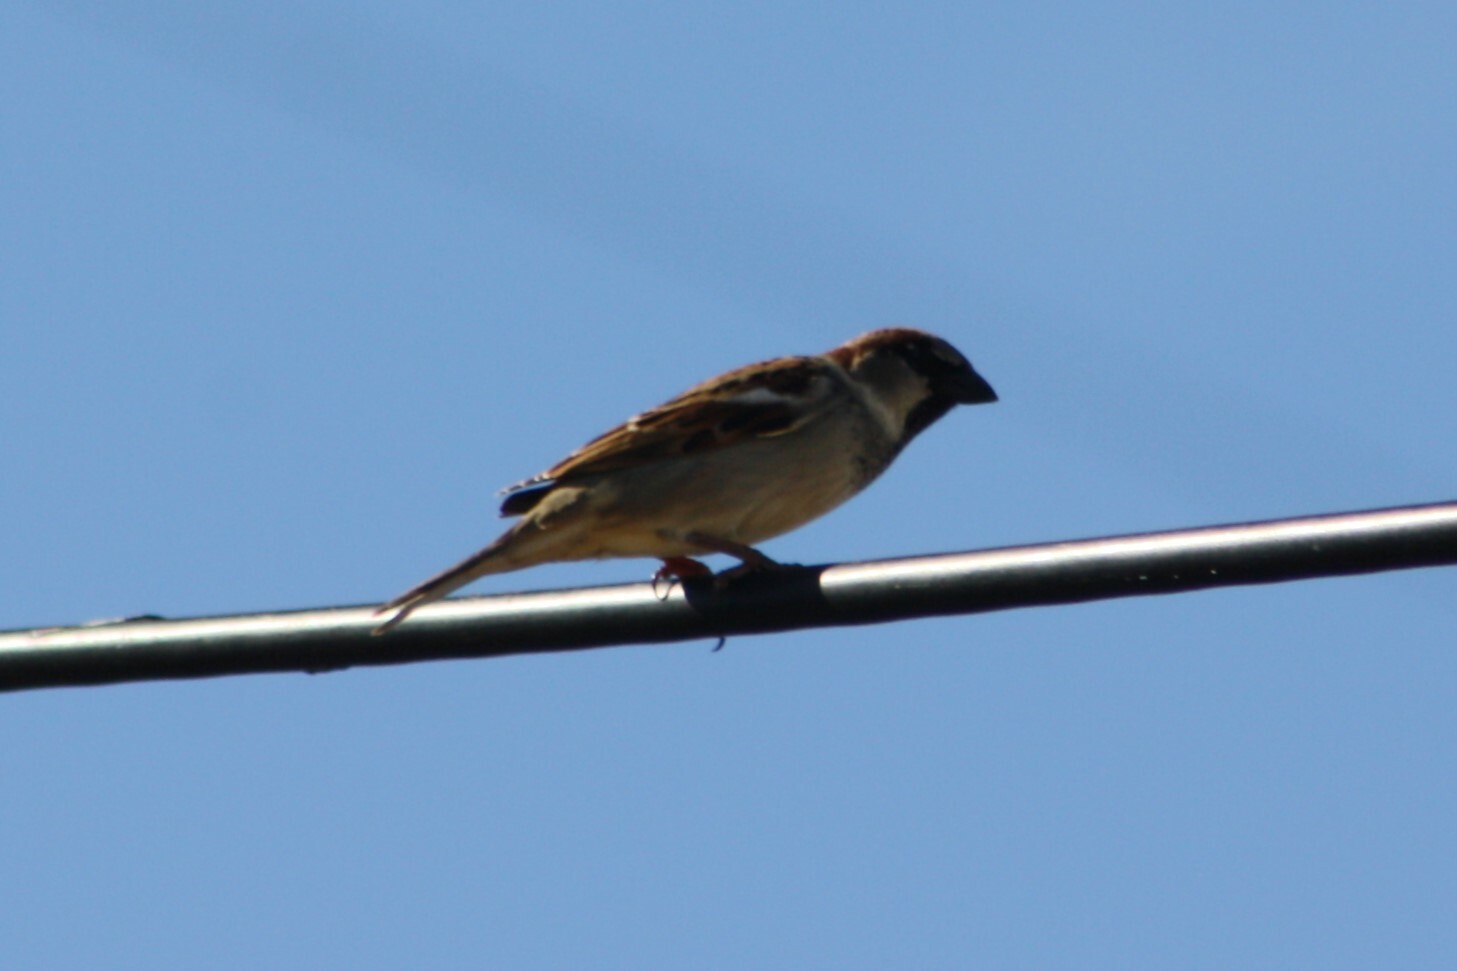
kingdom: Animalia
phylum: Chordata
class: Aves
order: Passeriformes
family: Passeridae
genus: Passer
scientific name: Passer domesticus
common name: House sparrow
